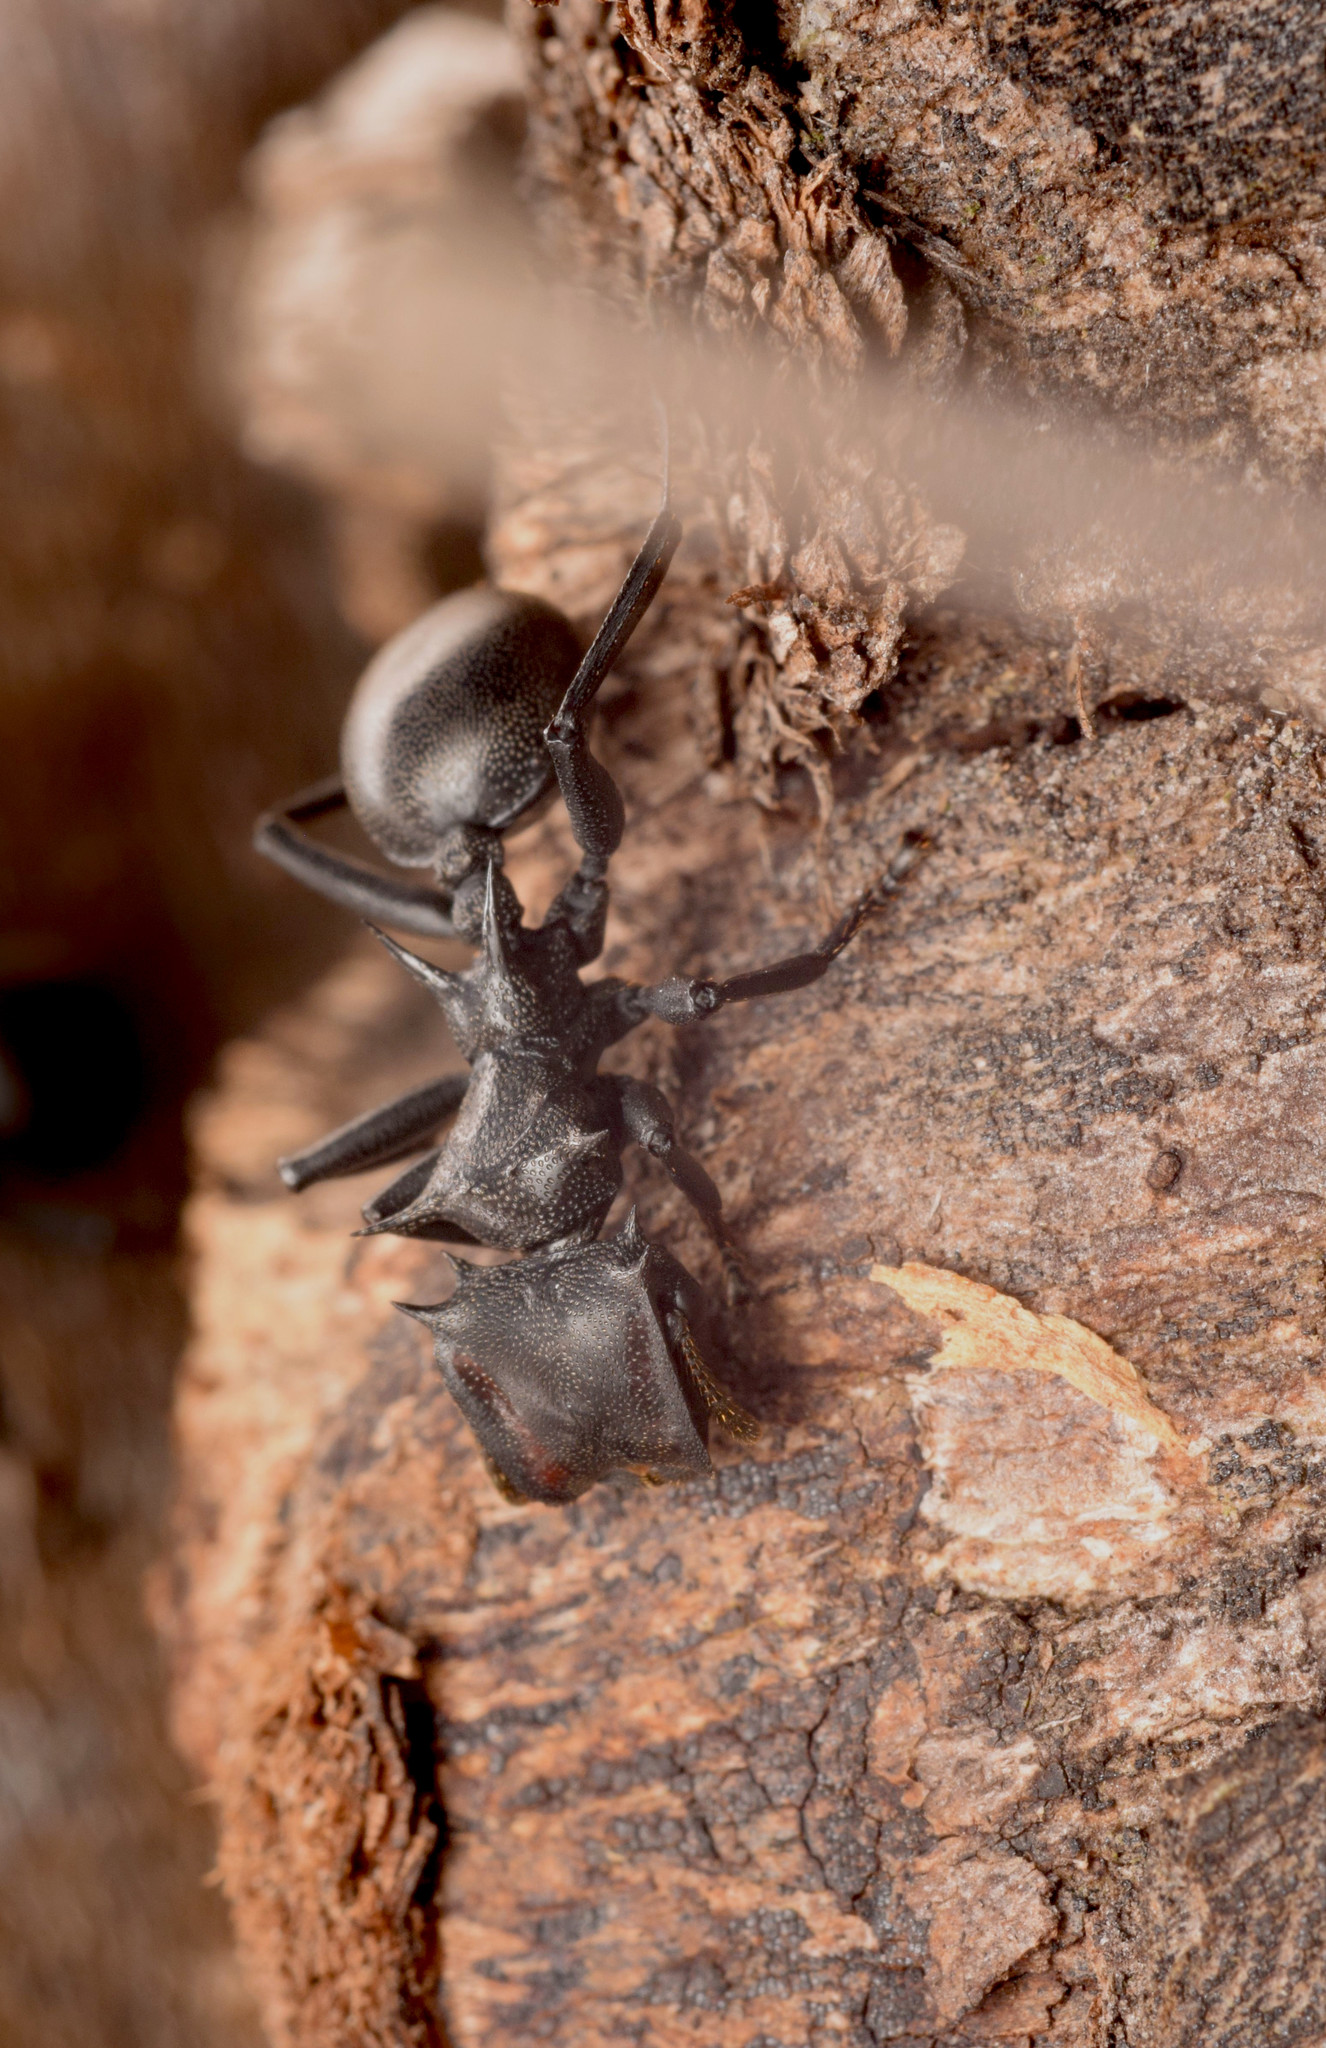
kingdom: Animalia
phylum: Arthropoda
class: Insecta
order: Hymenoptera
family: Formicidae
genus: Cephalotes
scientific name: Cephalotes atratus
